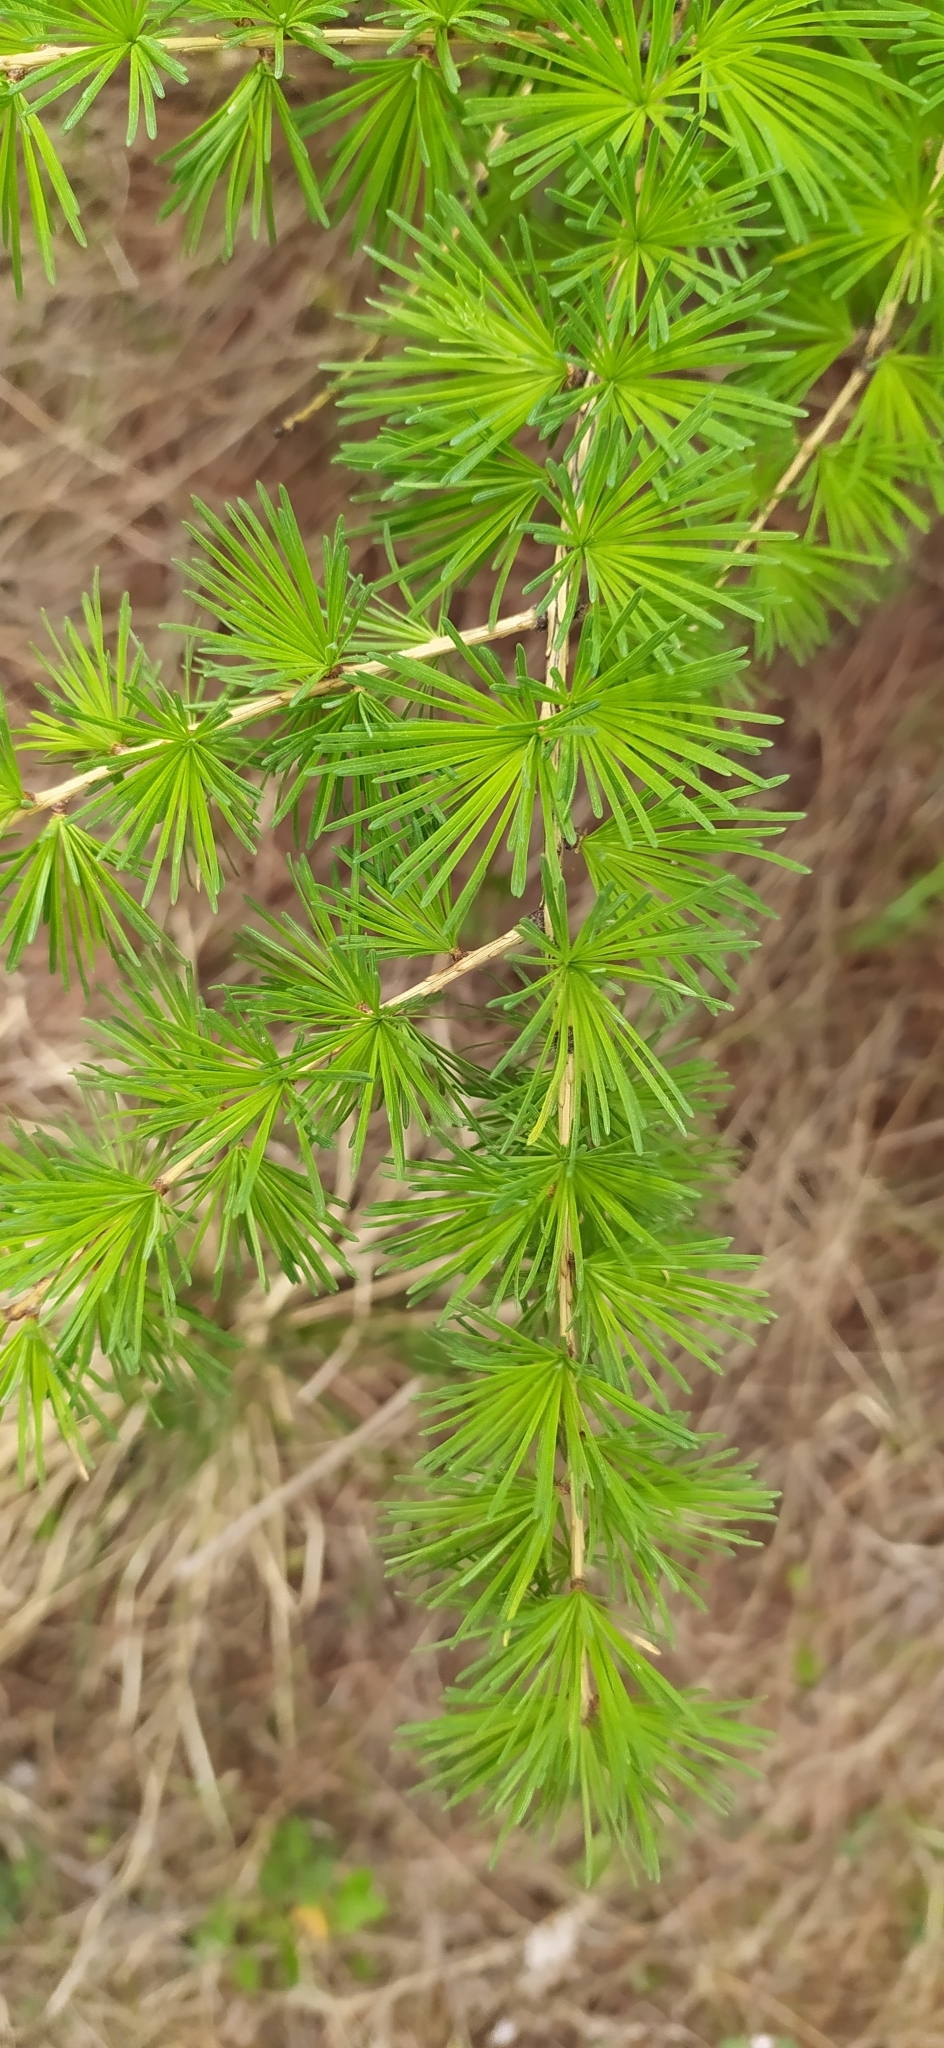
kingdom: Plantae
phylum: Tracheophyta
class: Pinopsida
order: Pinales
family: Pinaceae
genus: Larix
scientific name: Larix sibirica
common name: Siberian larch
